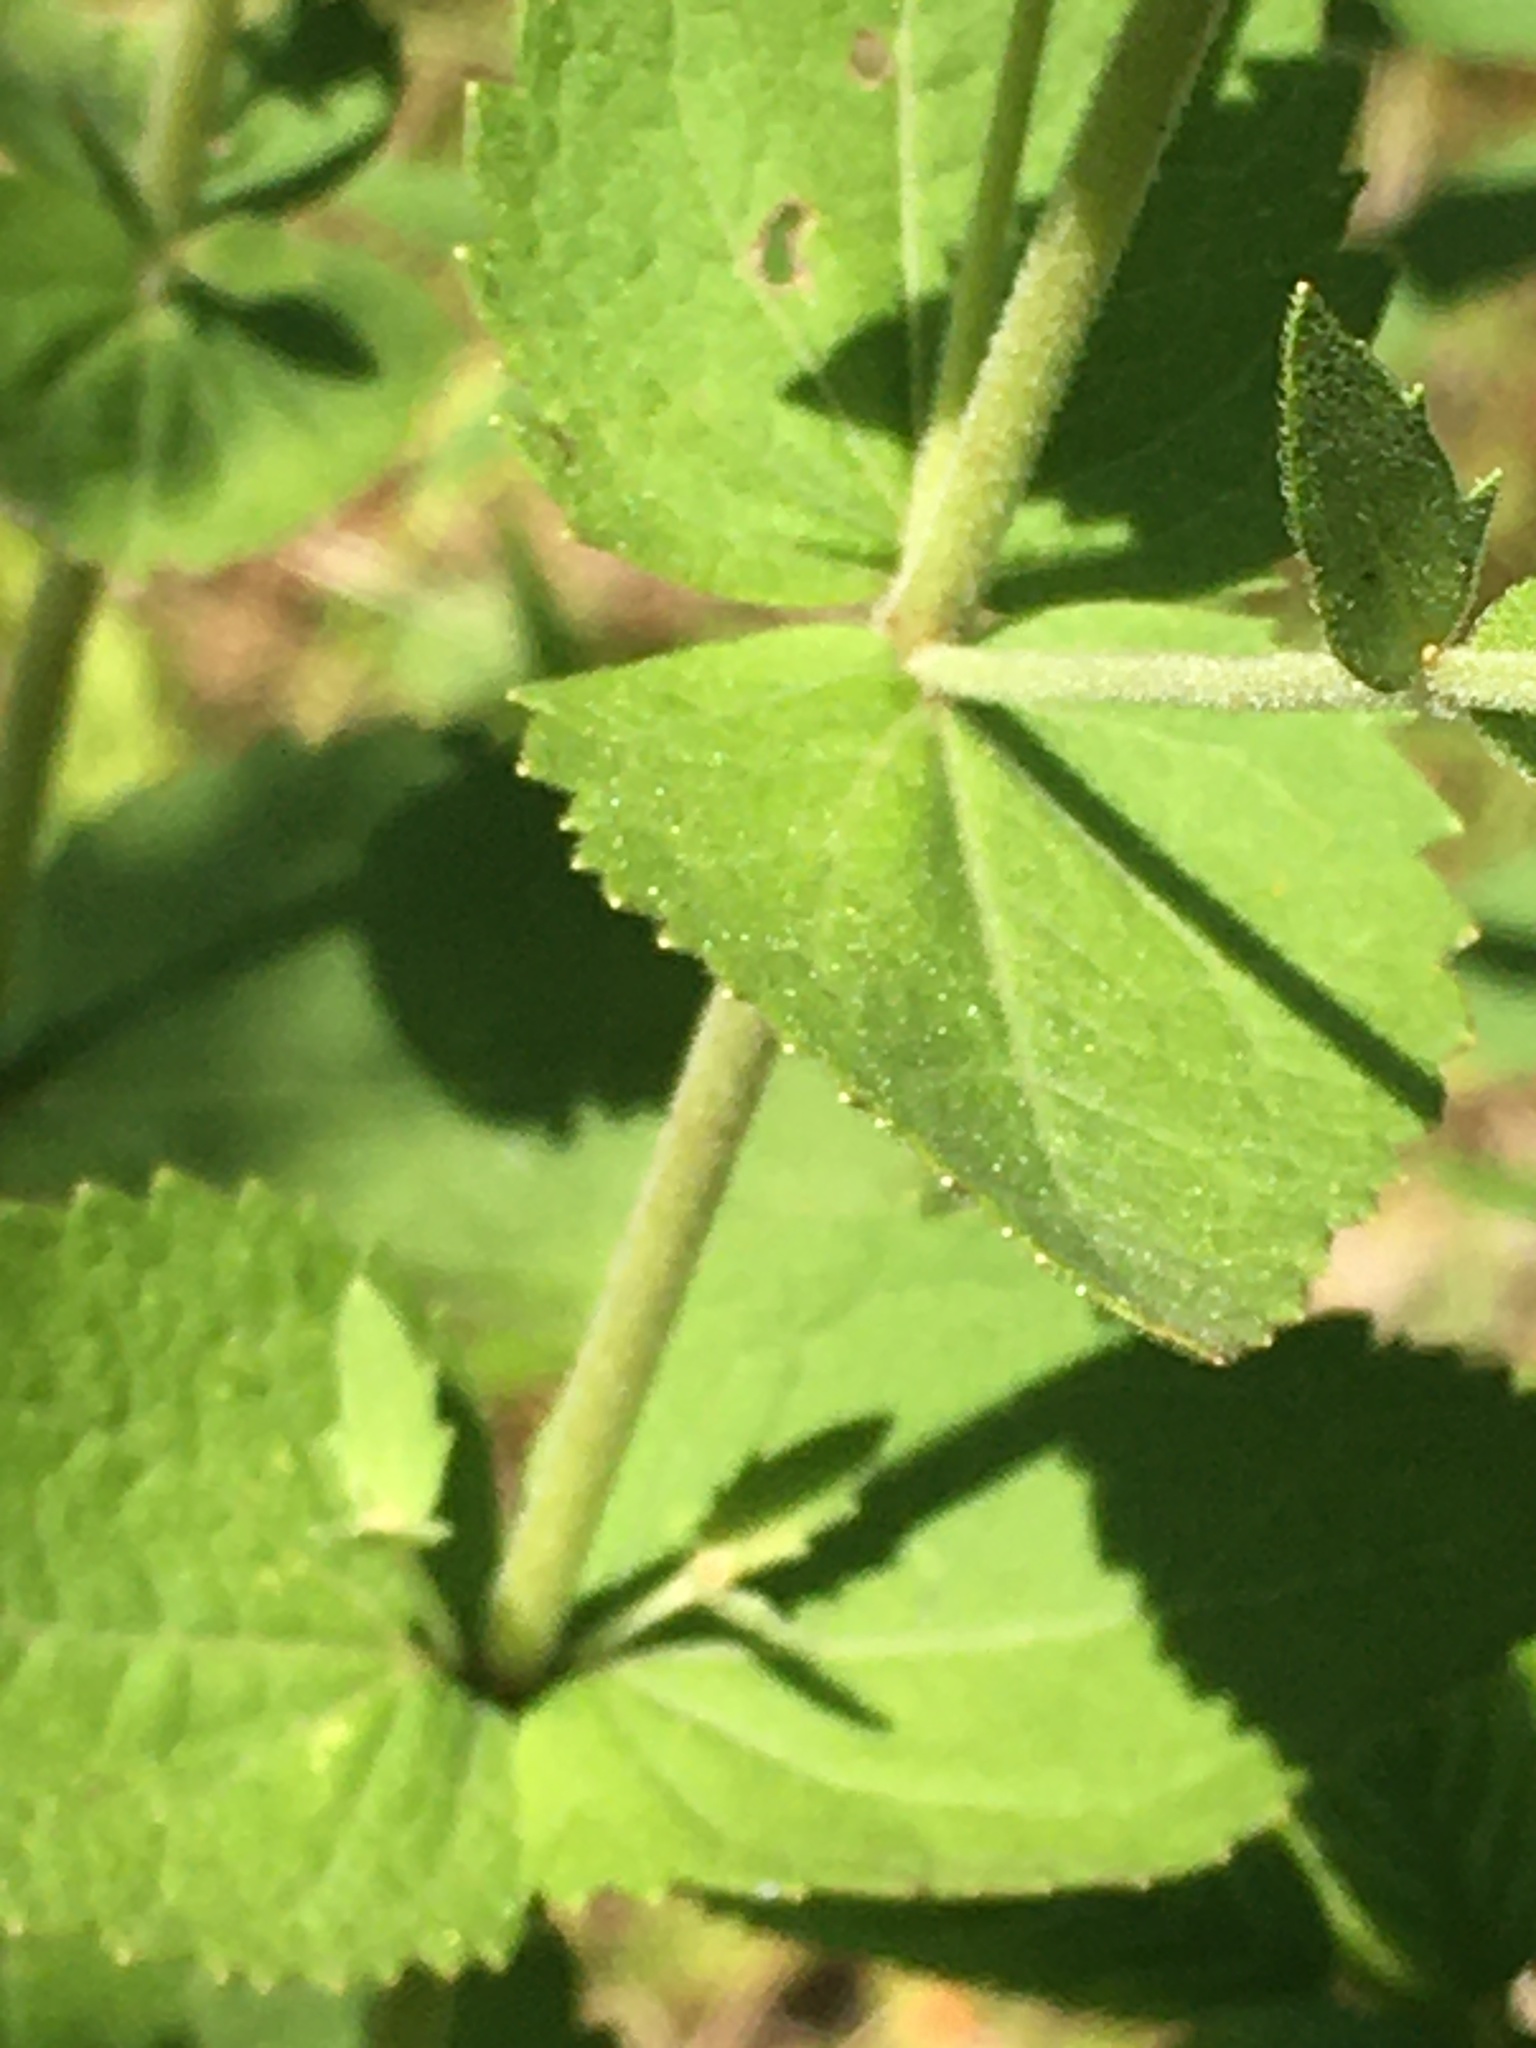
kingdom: Plantae
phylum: Tracheophyta
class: Magnoliopsida
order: Asterales
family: Asteraceae
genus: Eupatorium
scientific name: Eupatorium rotundifolium
